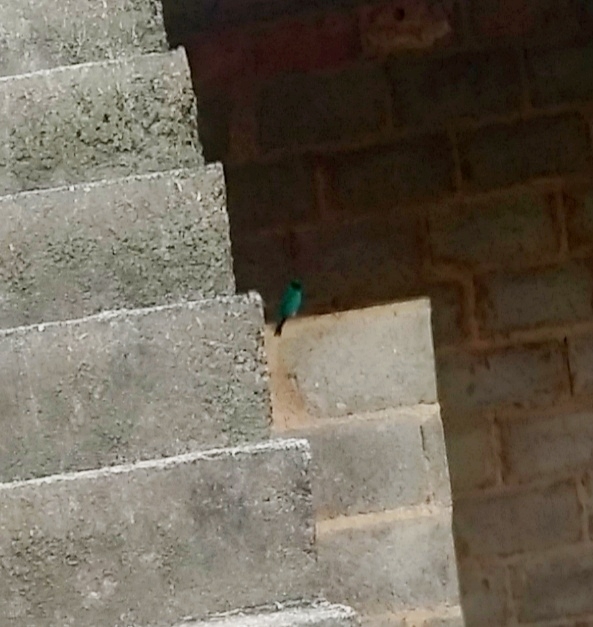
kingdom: Animalia
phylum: Chordata
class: Aves
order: Passeriformes
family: Thraupidae
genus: Tersina
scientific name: Tersina viridis
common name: Swallow tanager
